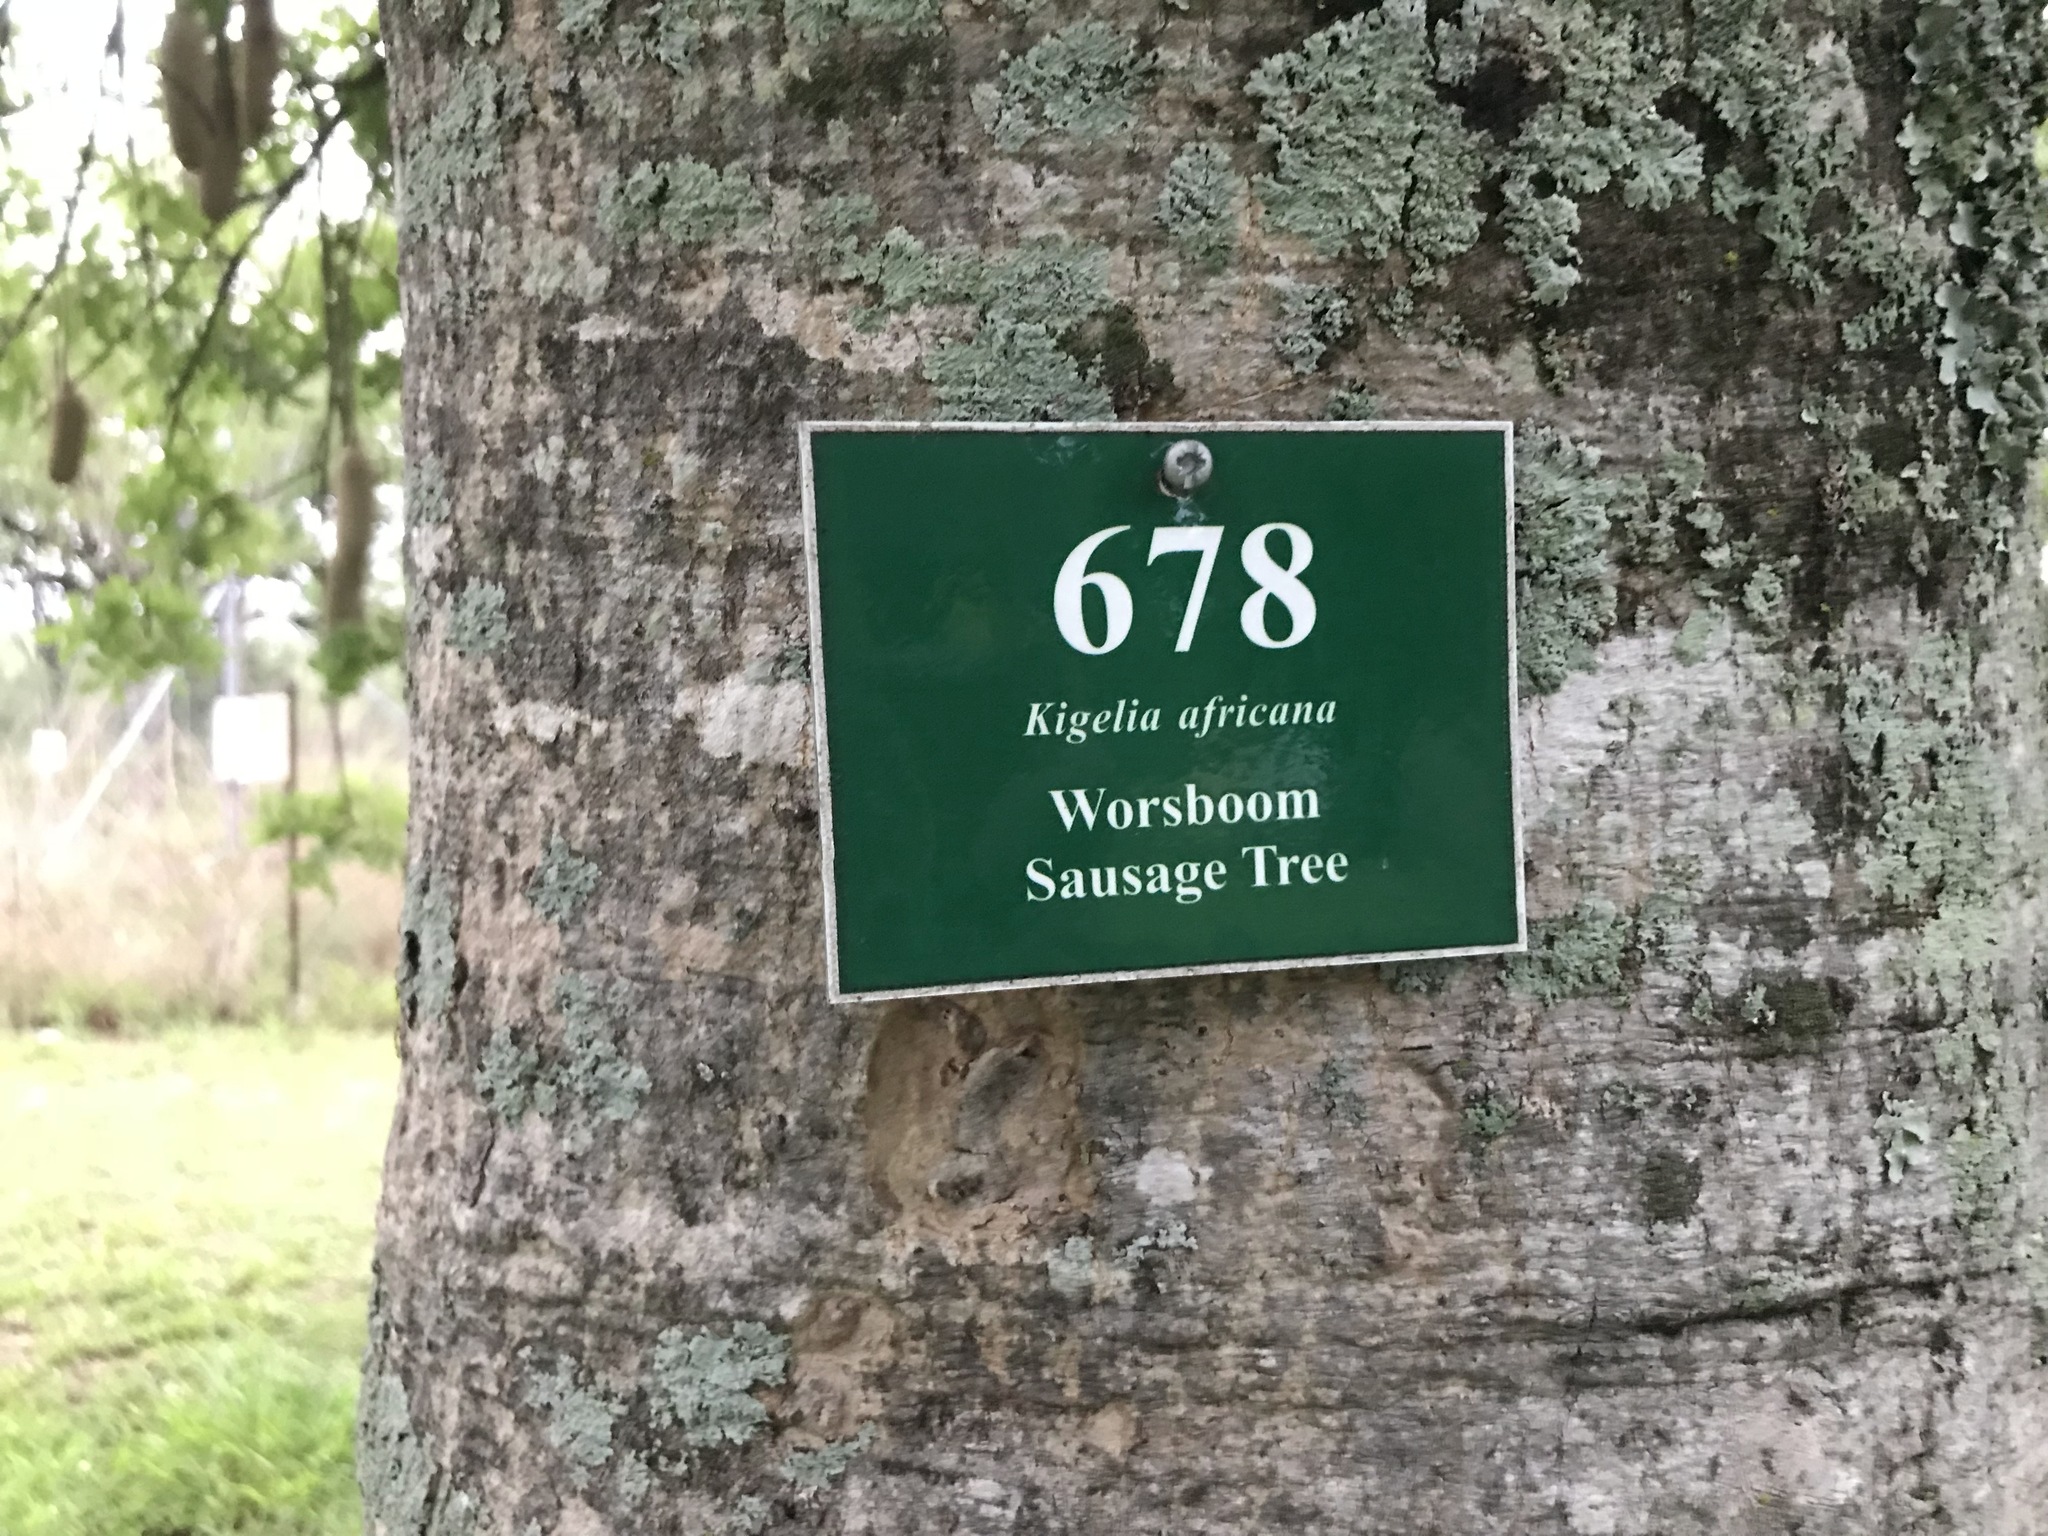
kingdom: Plantae
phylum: Tracheophyta
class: Magnoliopsida
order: Lamiales
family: Bignoniaceae
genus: Kigelia
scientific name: Kigelia africana
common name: Sausage tree
